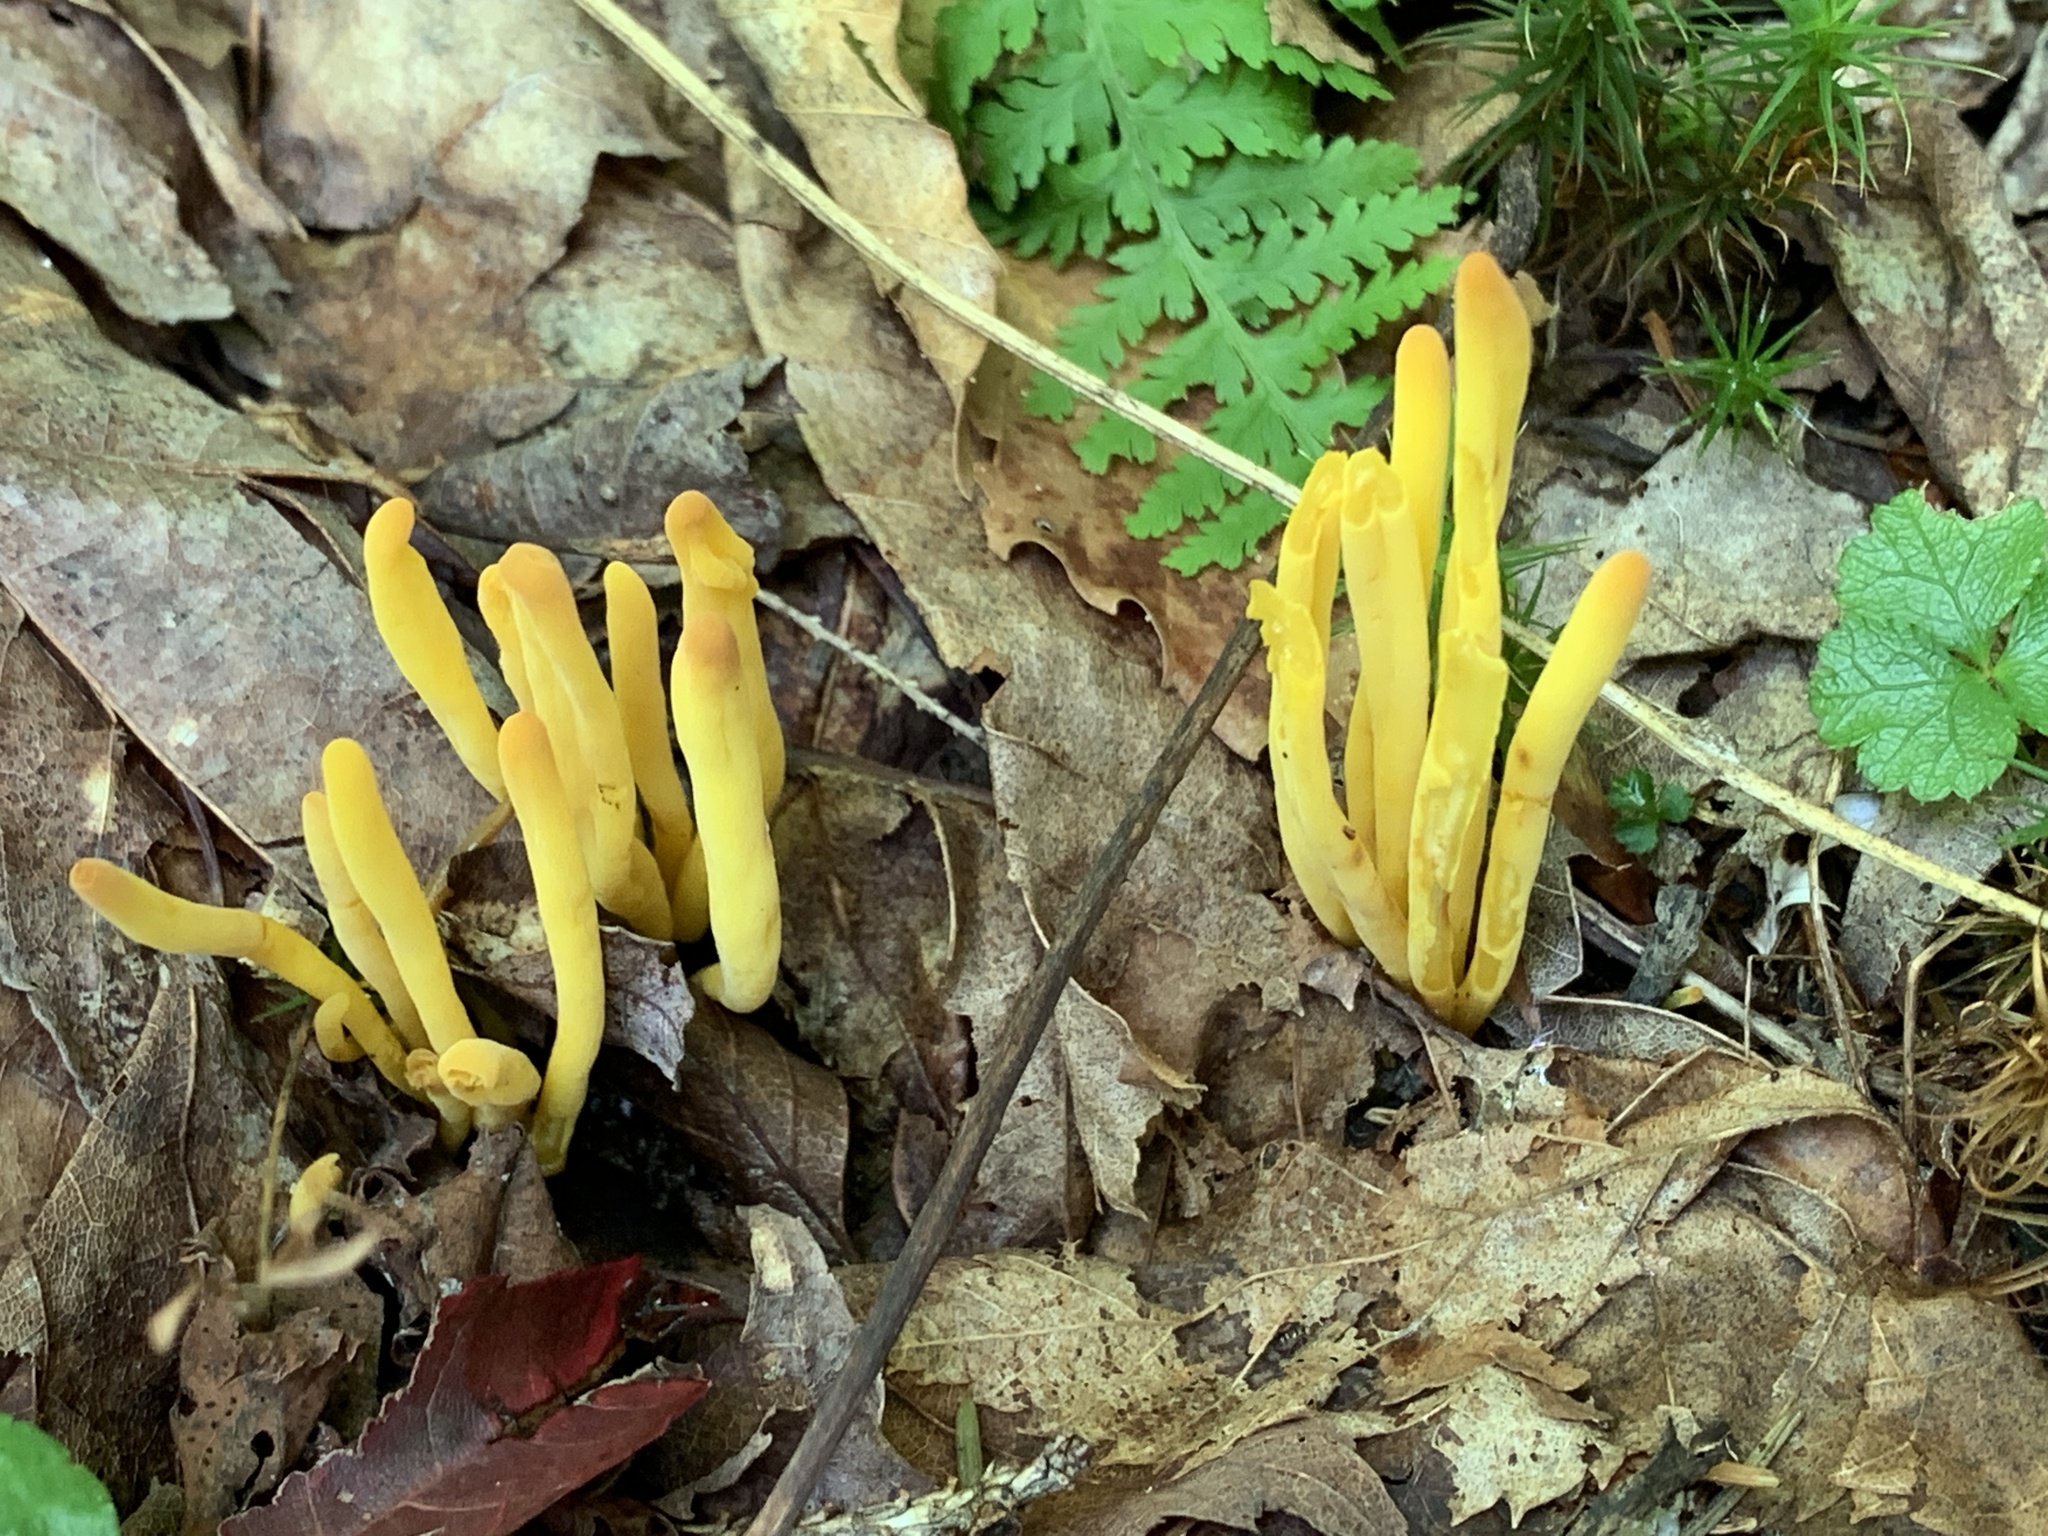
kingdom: Fungi
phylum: Basidiomycota
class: Agaricomycetes
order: Agaricales
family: Clavariaceae
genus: Clavulinopsis
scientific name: Clavulinopsis fusiformis
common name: Golden spindles
